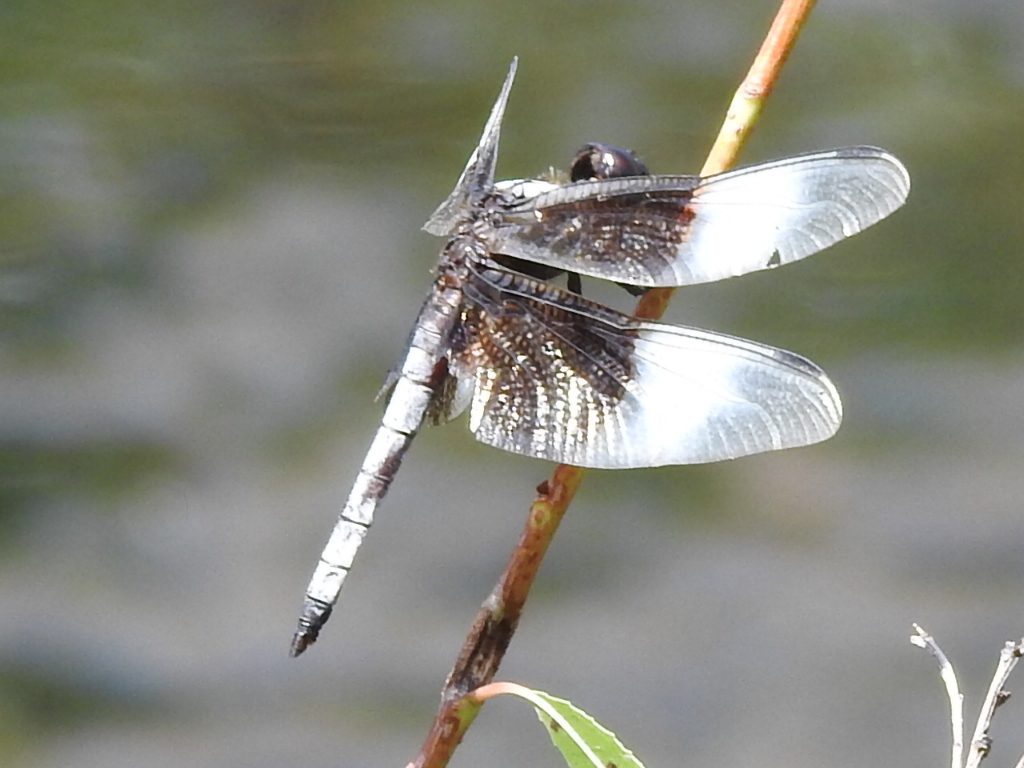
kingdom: Animalia
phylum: Arthropoda
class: Insecta
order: Odonata
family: Libellulidae
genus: Libellula
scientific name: Libellula luctuosa
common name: Widow skimmer
